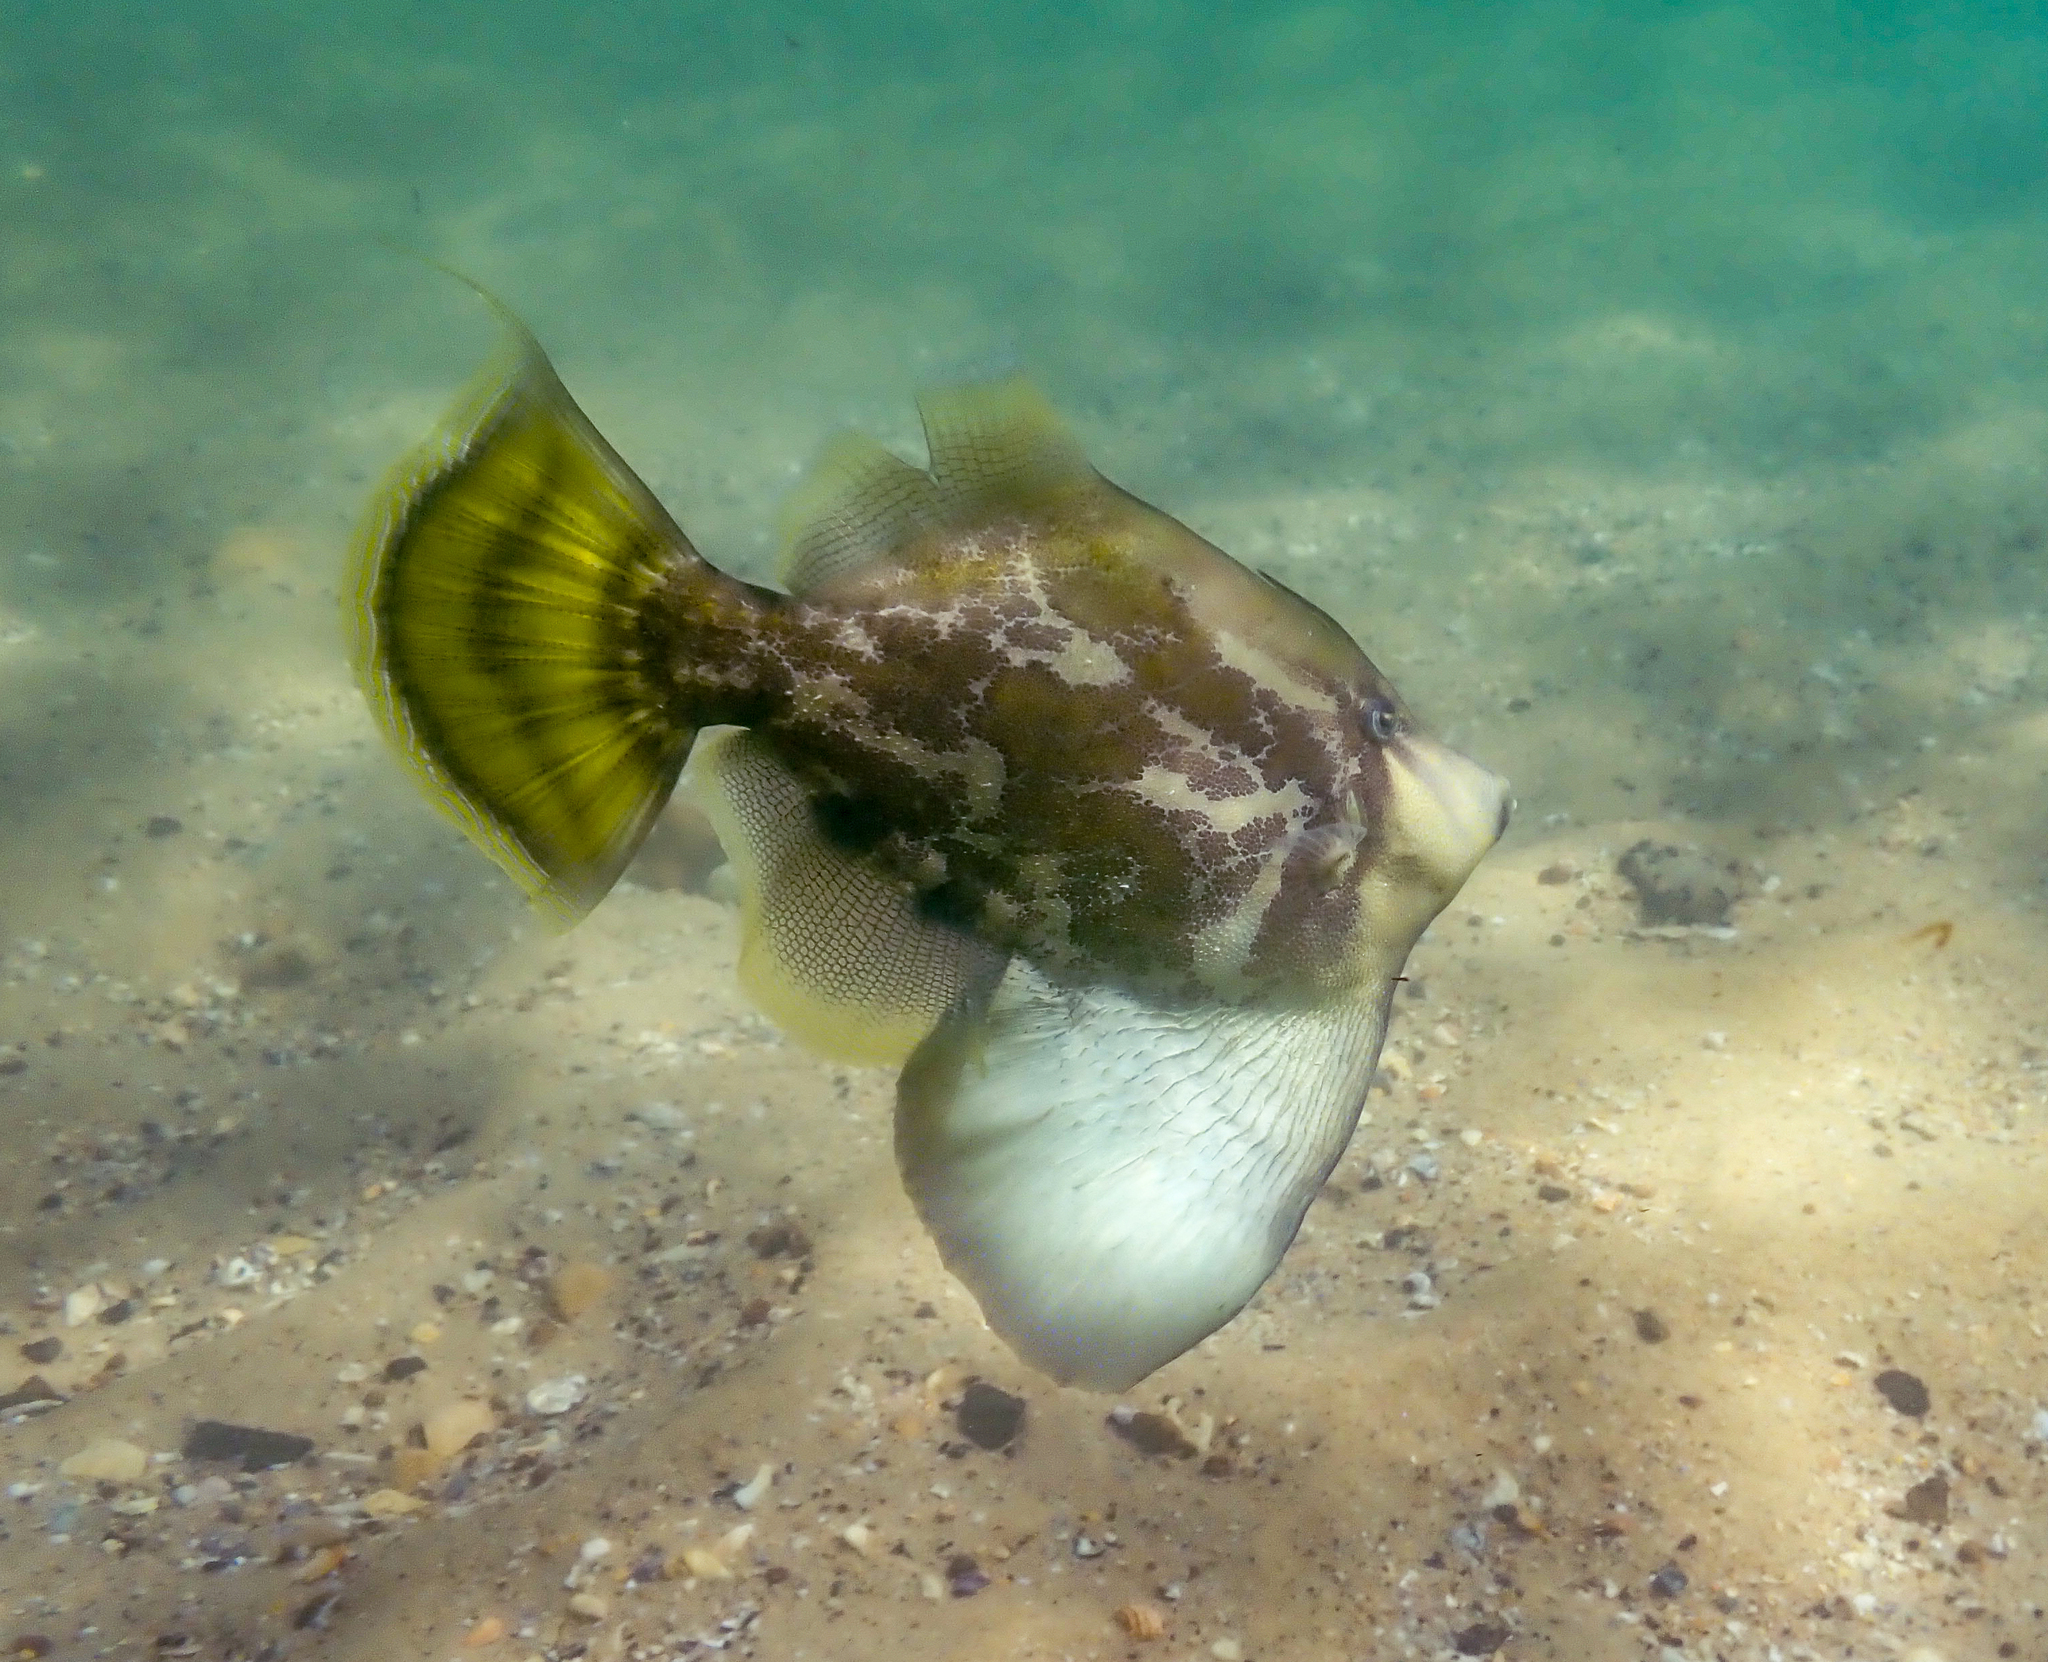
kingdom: Animalia
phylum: Chordata
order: Tetraodontiformes
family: Monacanthidae
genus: Monacanthus
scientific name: Monacanthus chinensis
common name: Centreboard leatherjacket
